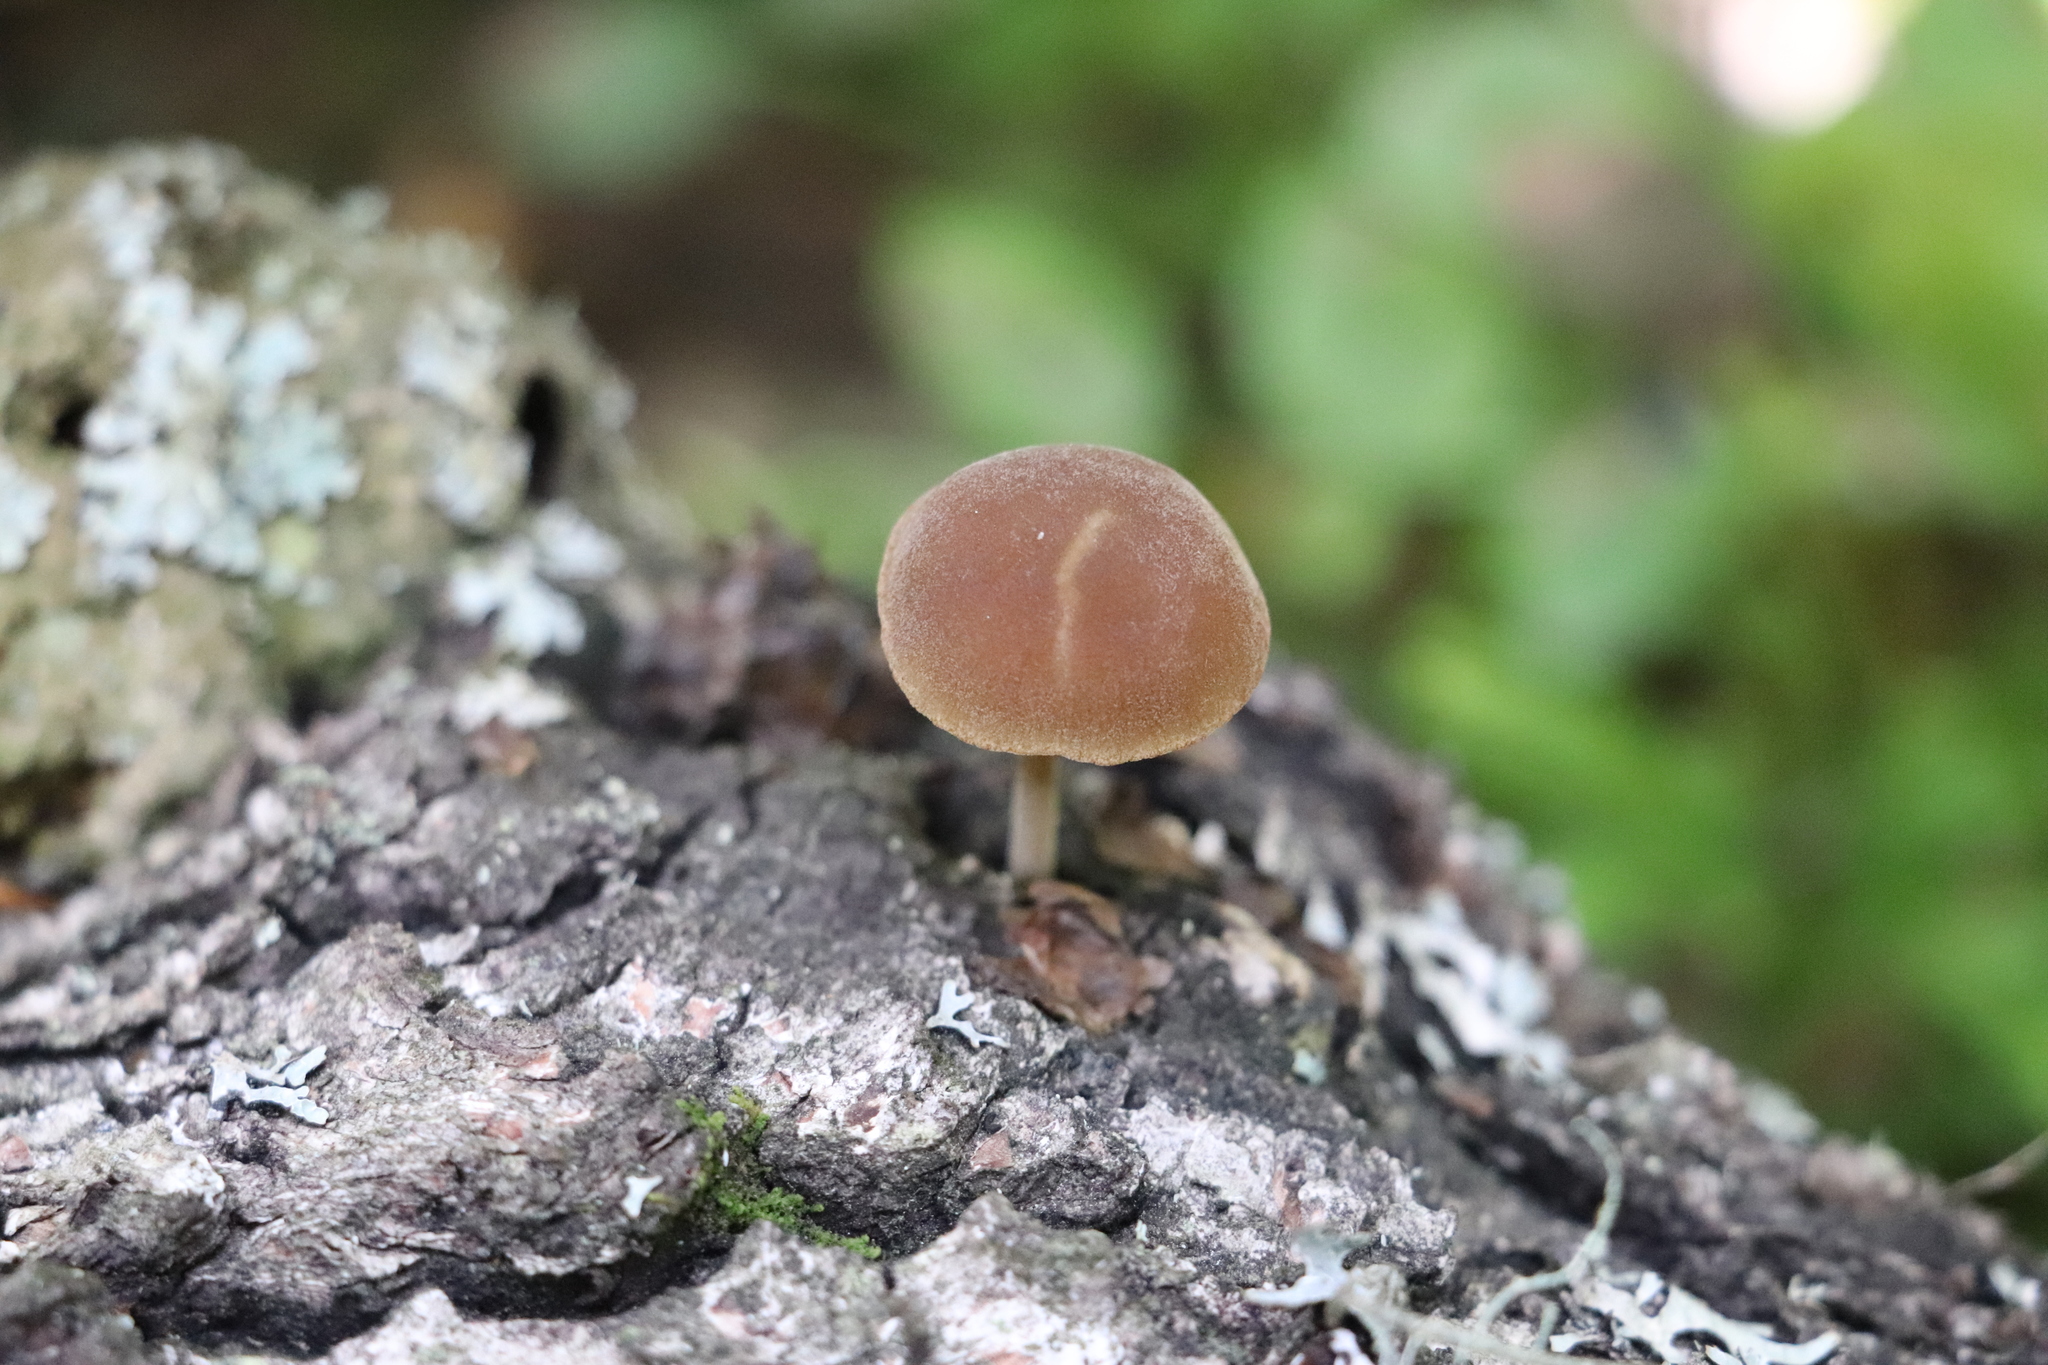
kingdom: Fungi
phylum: Basidiomycota
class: Agaricomycetes
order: Agaricales
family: Crepidotaceae
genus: Simocybe
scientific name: Simocybe sumptuosa
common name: Velvet twiglet
